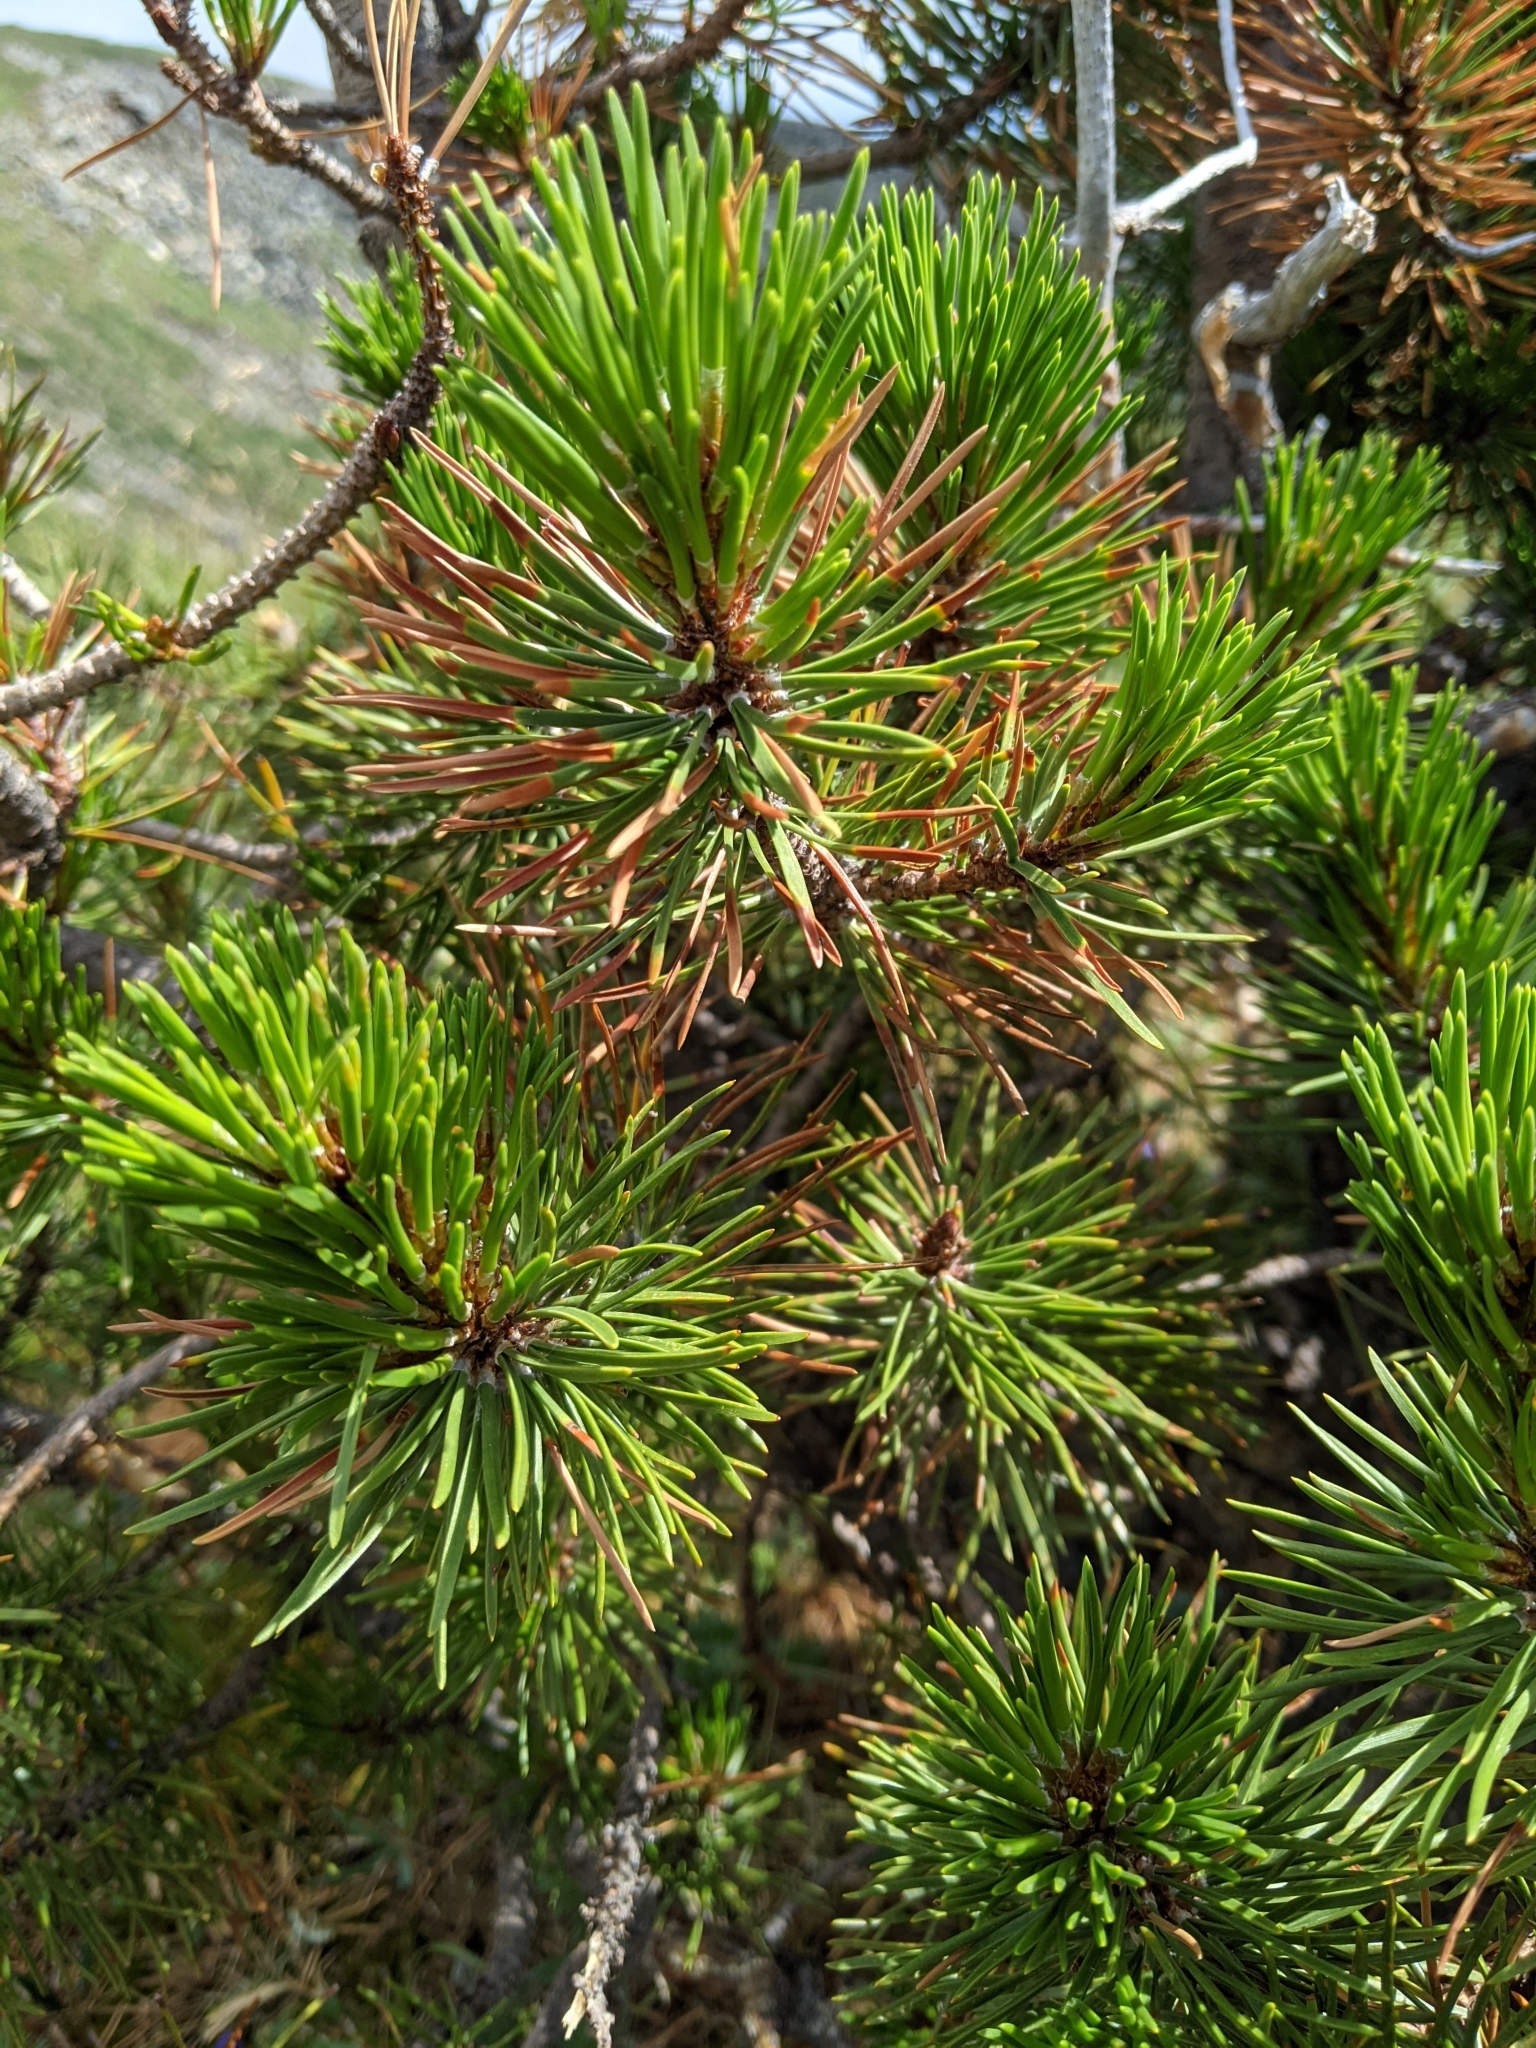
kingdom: Plantae
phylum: Tracheophyta
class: Pinopsida
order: Pinales
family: Pinaceae
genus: Pinus
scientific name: Pinus contorta
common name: Lodgepole pine
